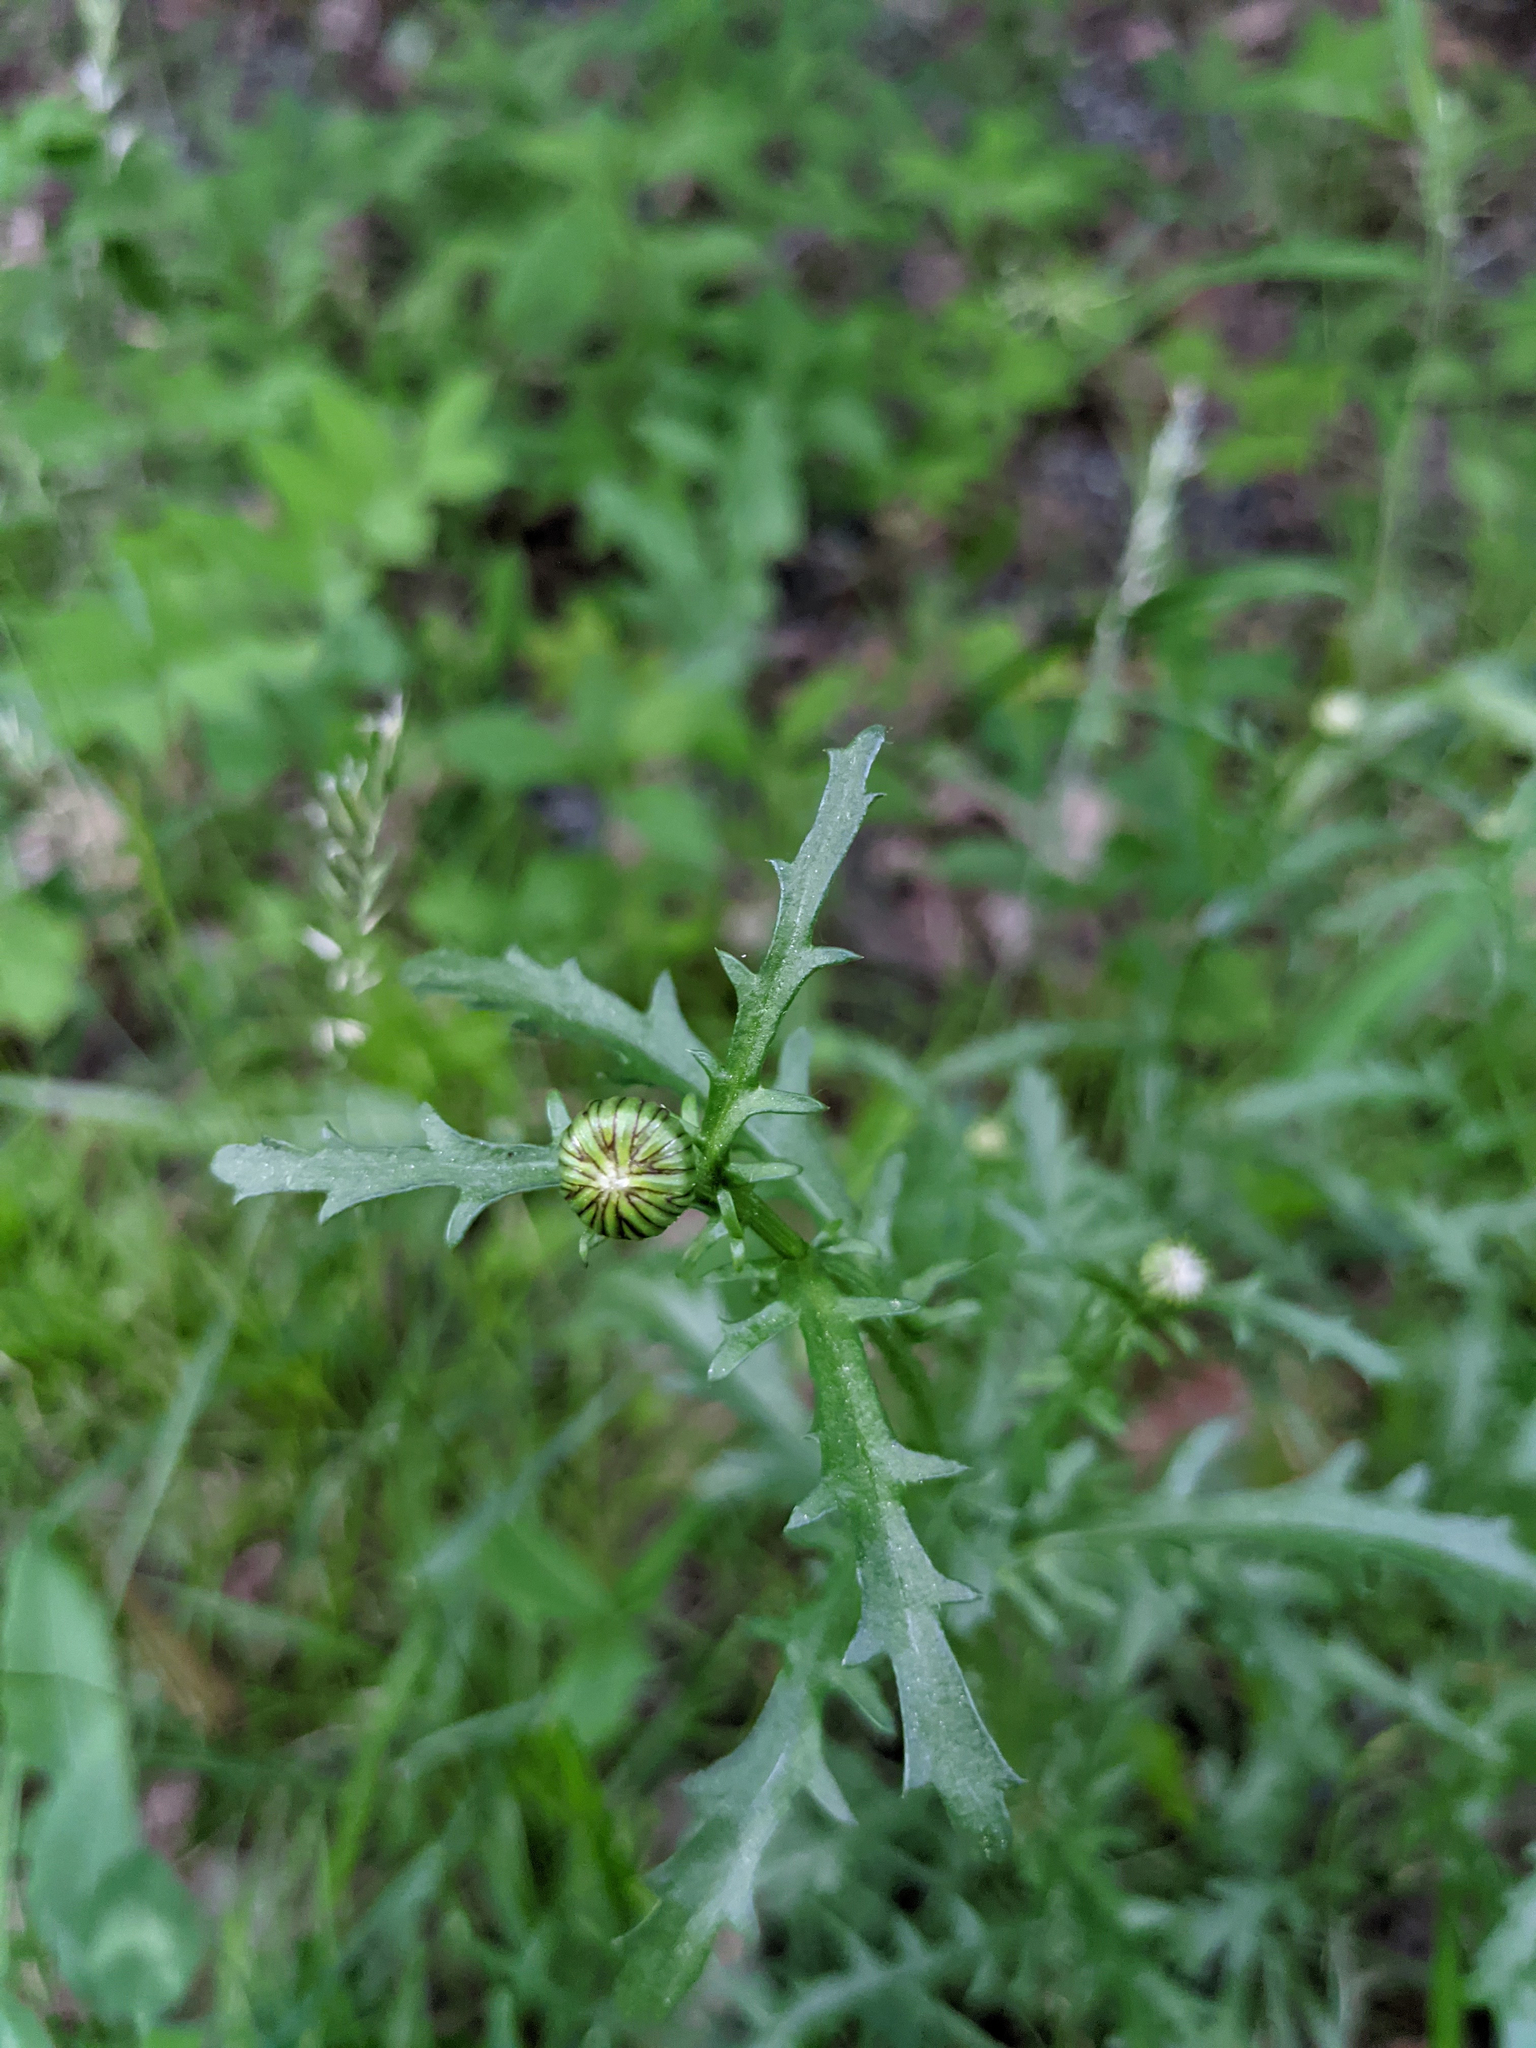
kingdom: Plantae
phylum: Tracheophyta
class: Magnoliopsida
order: Asterales
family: Asteraceae
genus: Leucanthemum
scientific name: Leucanthemum vulgare
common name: Oxeye daisy
